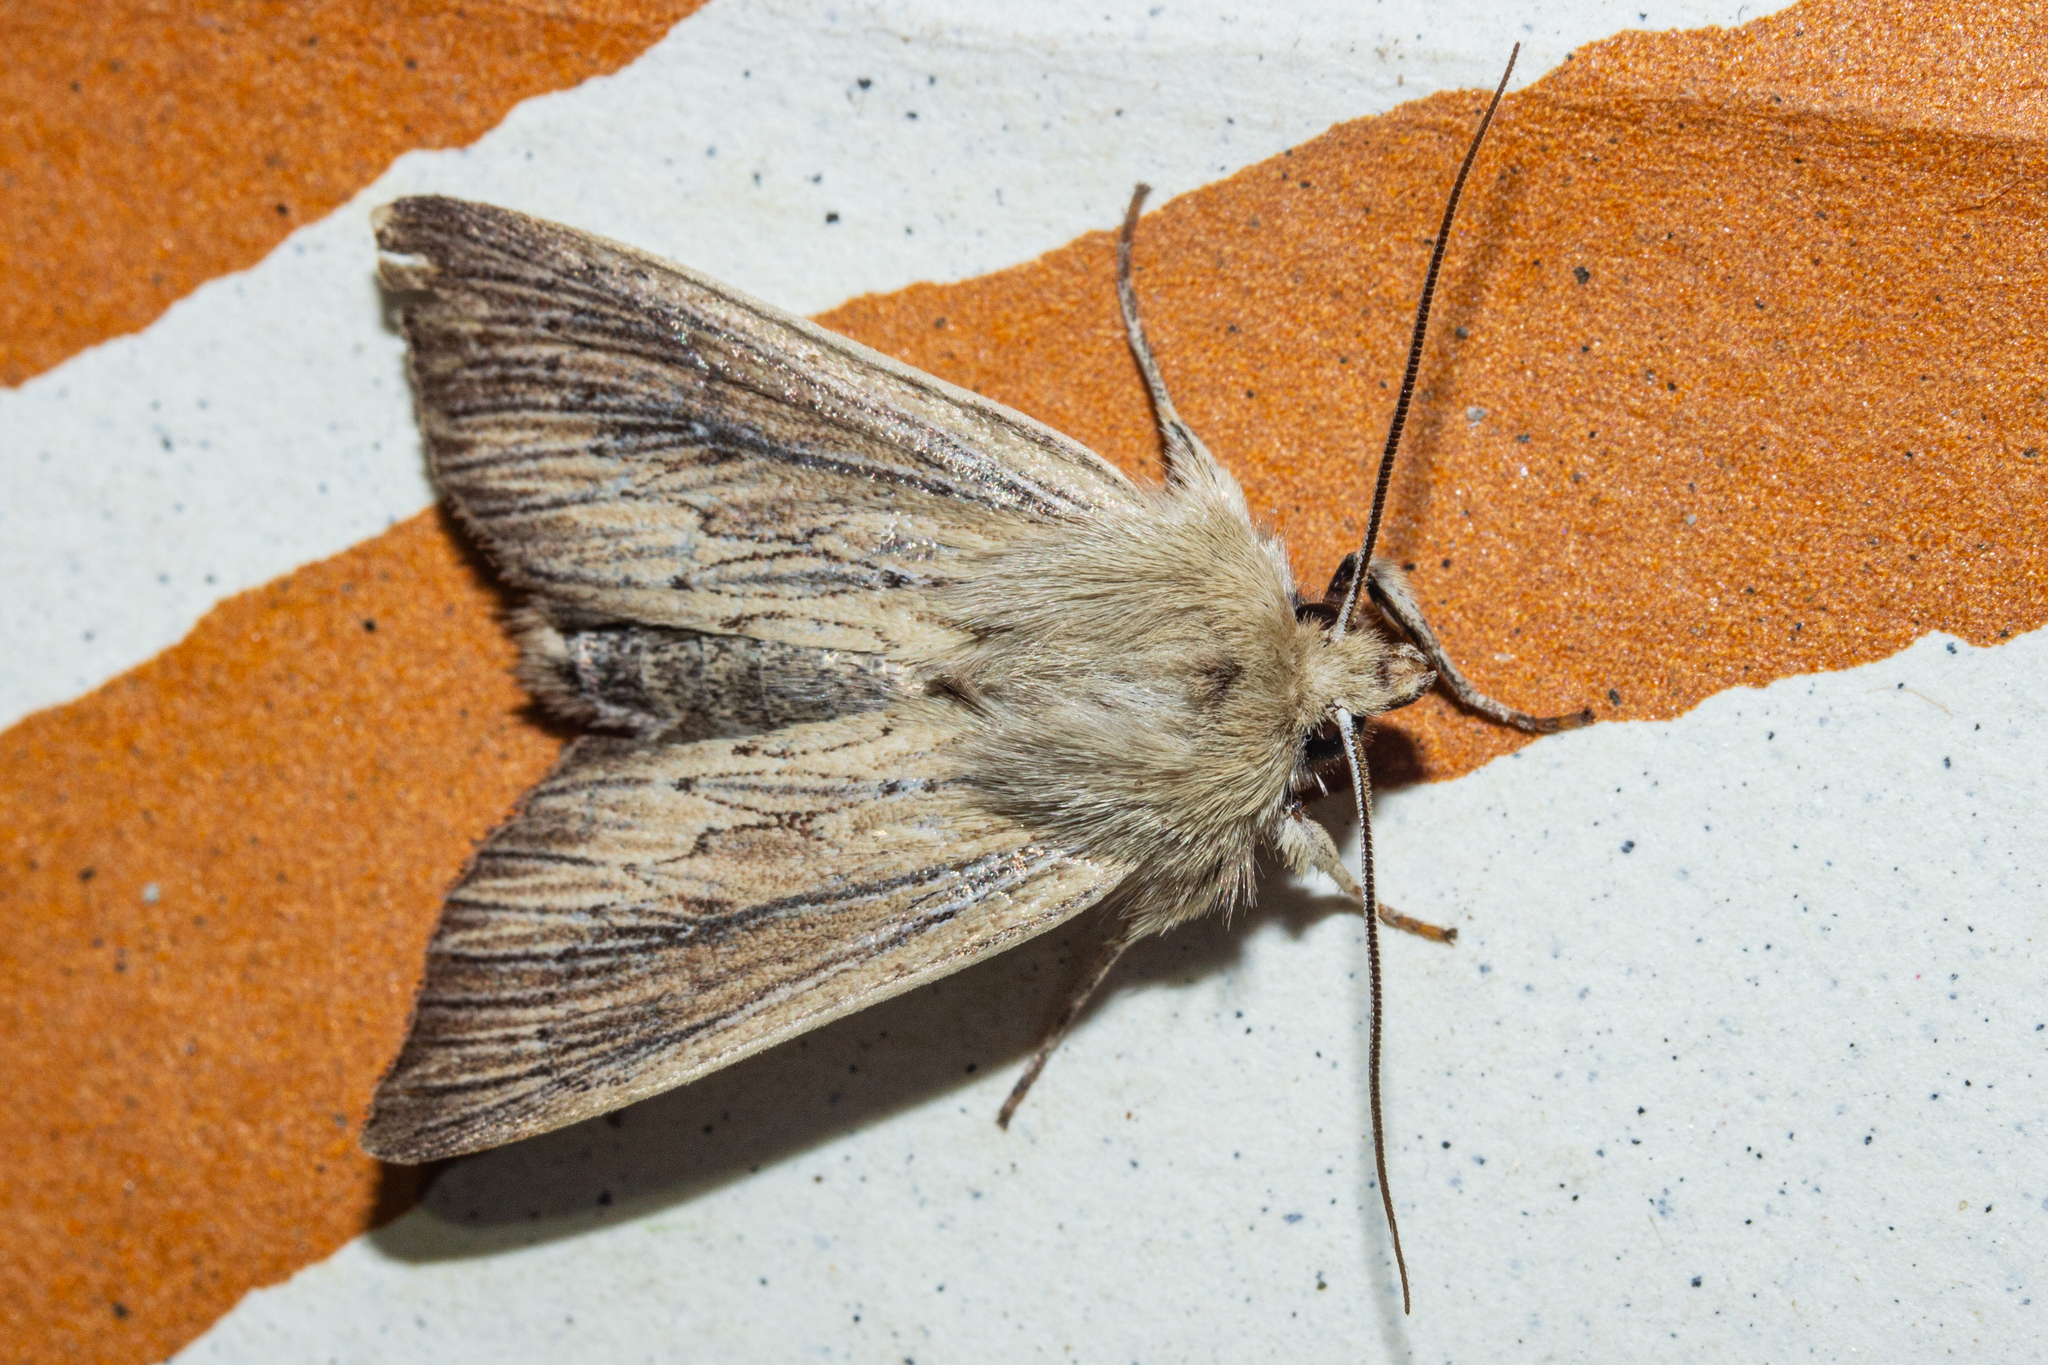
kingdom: Animalia
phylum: Arthropoda
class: Insecta
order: Lepidoptera
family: Noctuidae
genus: Ichneutica
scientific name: Ichneutica arotis
